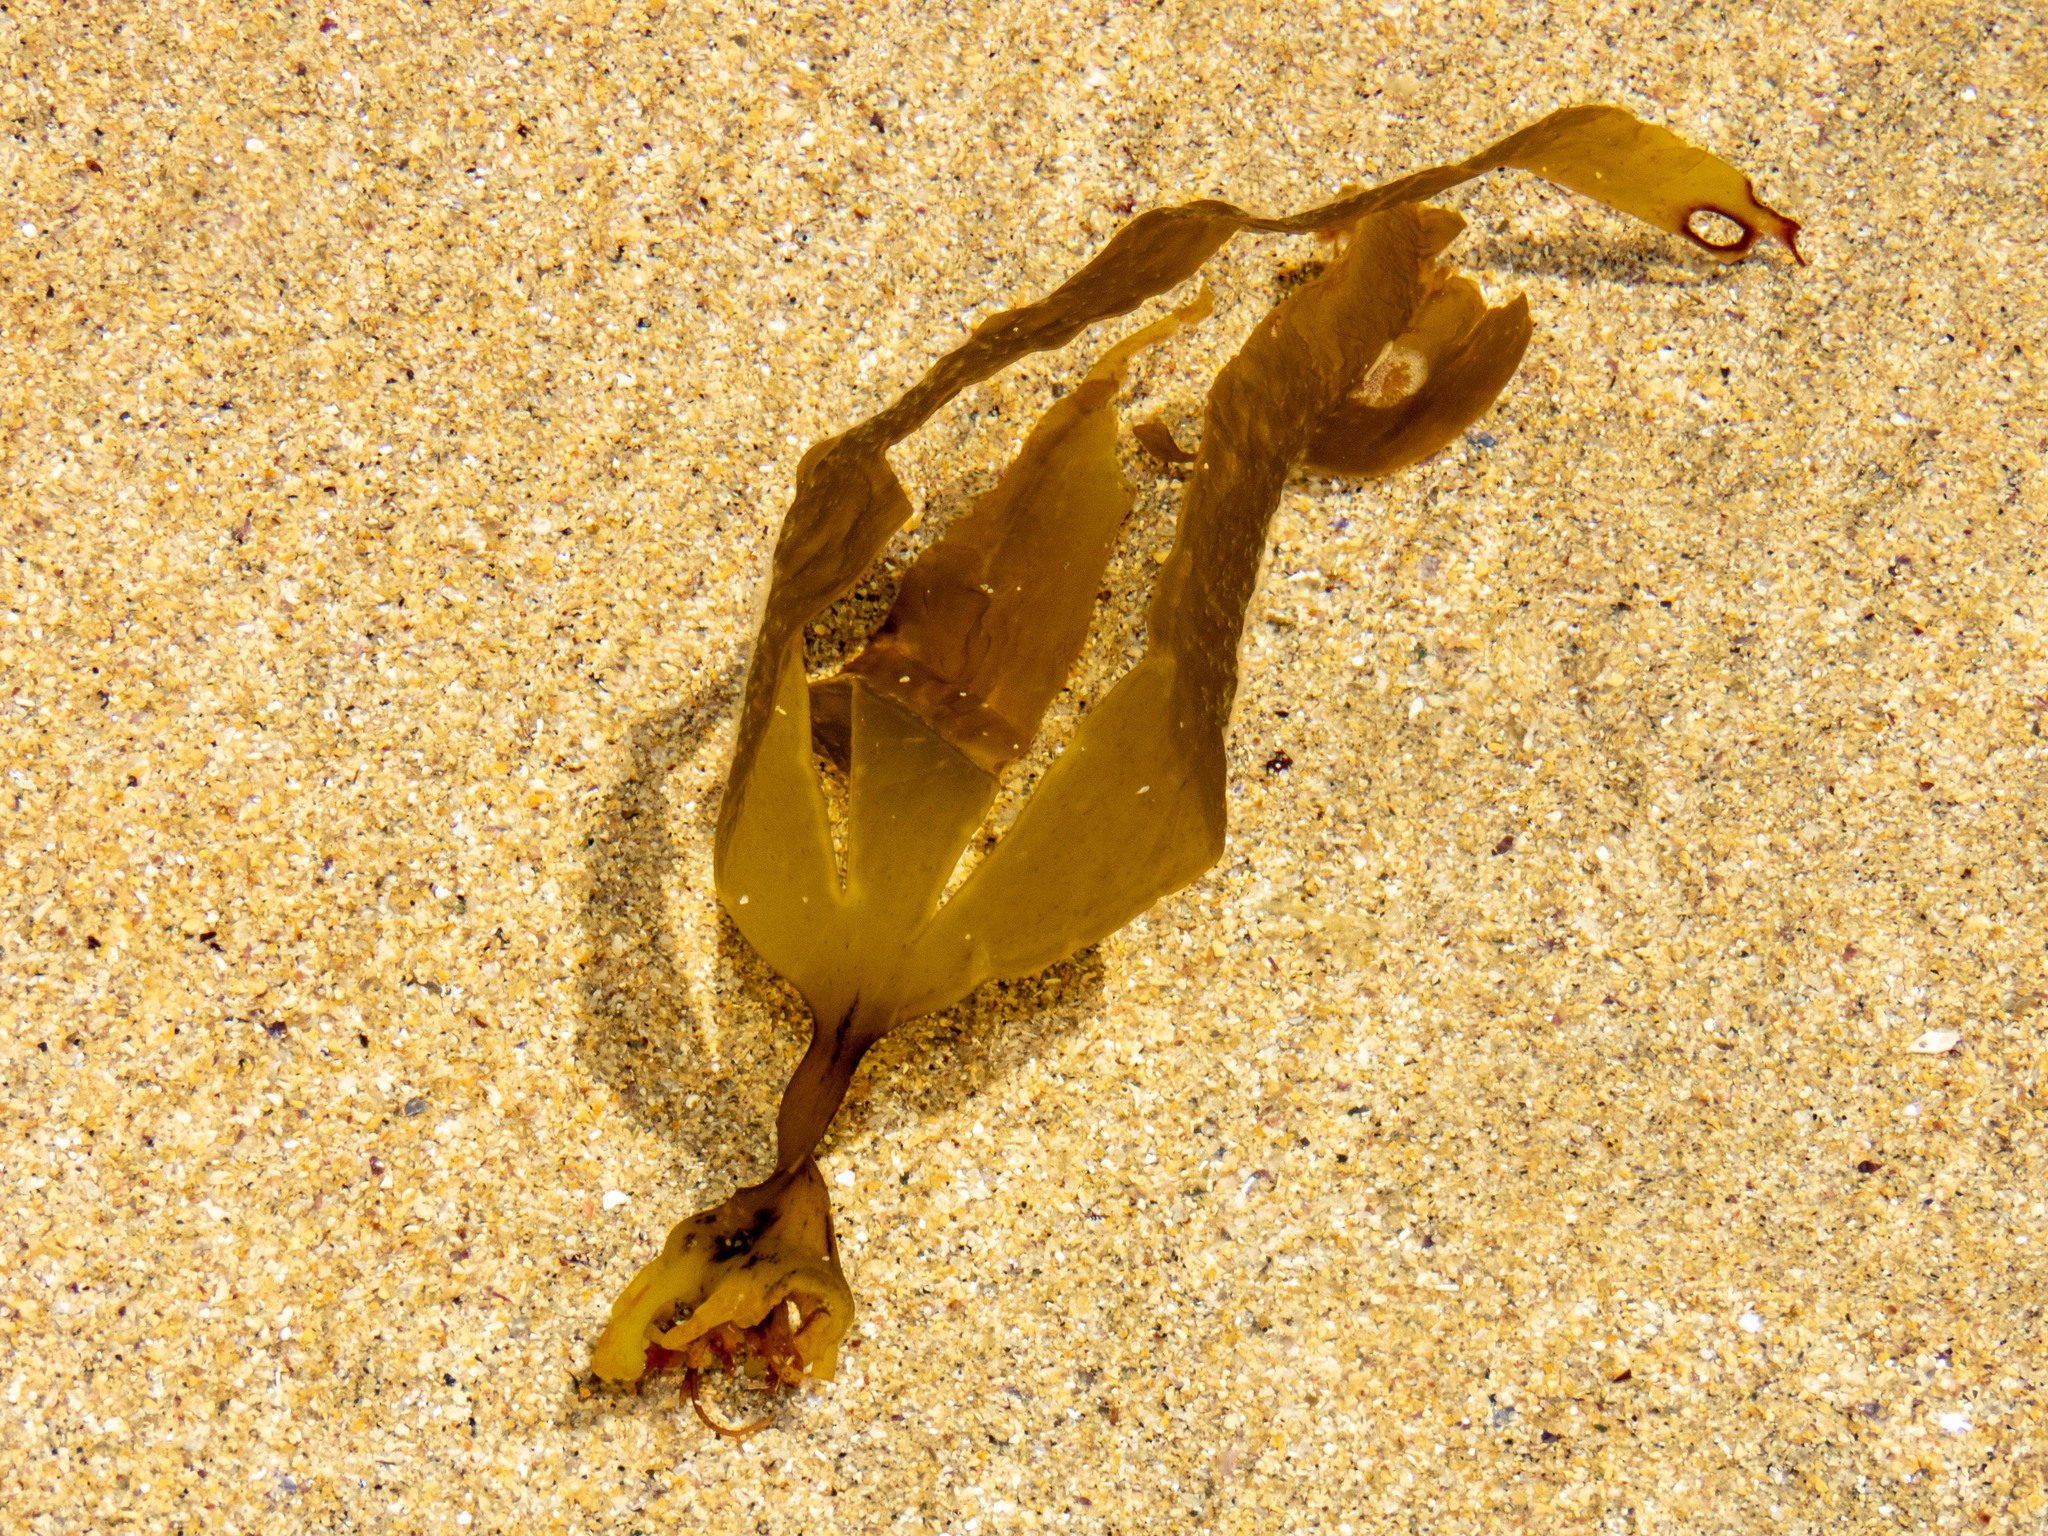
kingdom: Chromista
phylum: Ochrophyta
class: Phaeophyceae
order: Tilopteridales
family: Phyllariaceae
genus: Saccorhiza
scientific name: Saccorhiza polyschides
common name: Furbelows
